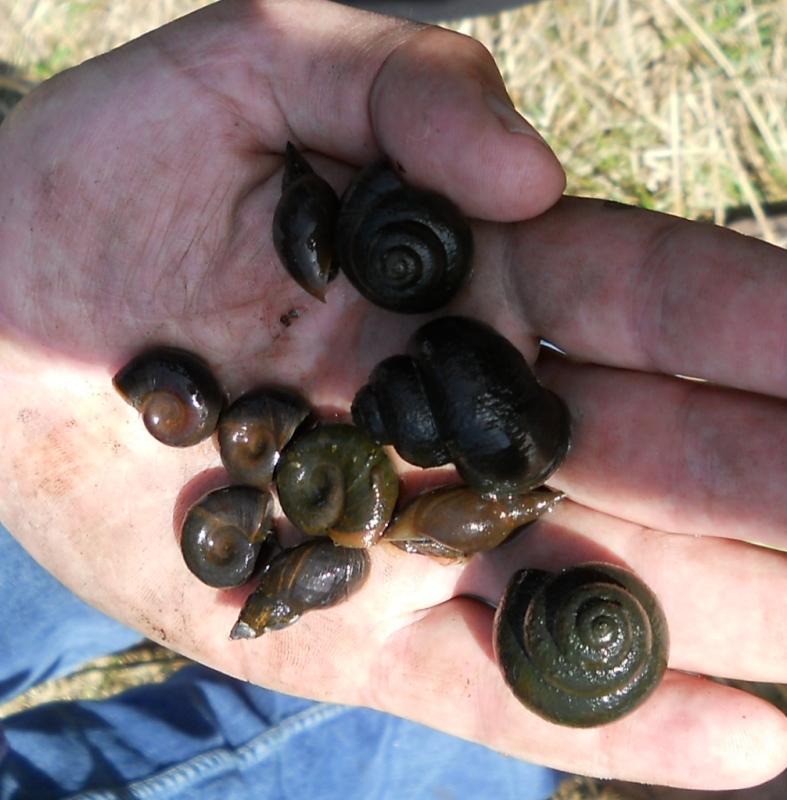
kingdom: Animalia
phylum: Mollusca
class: Gastropoda
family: Planorbidae
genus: Planorbarius
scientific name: Planorbarius corneus
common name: Great ramshorn
